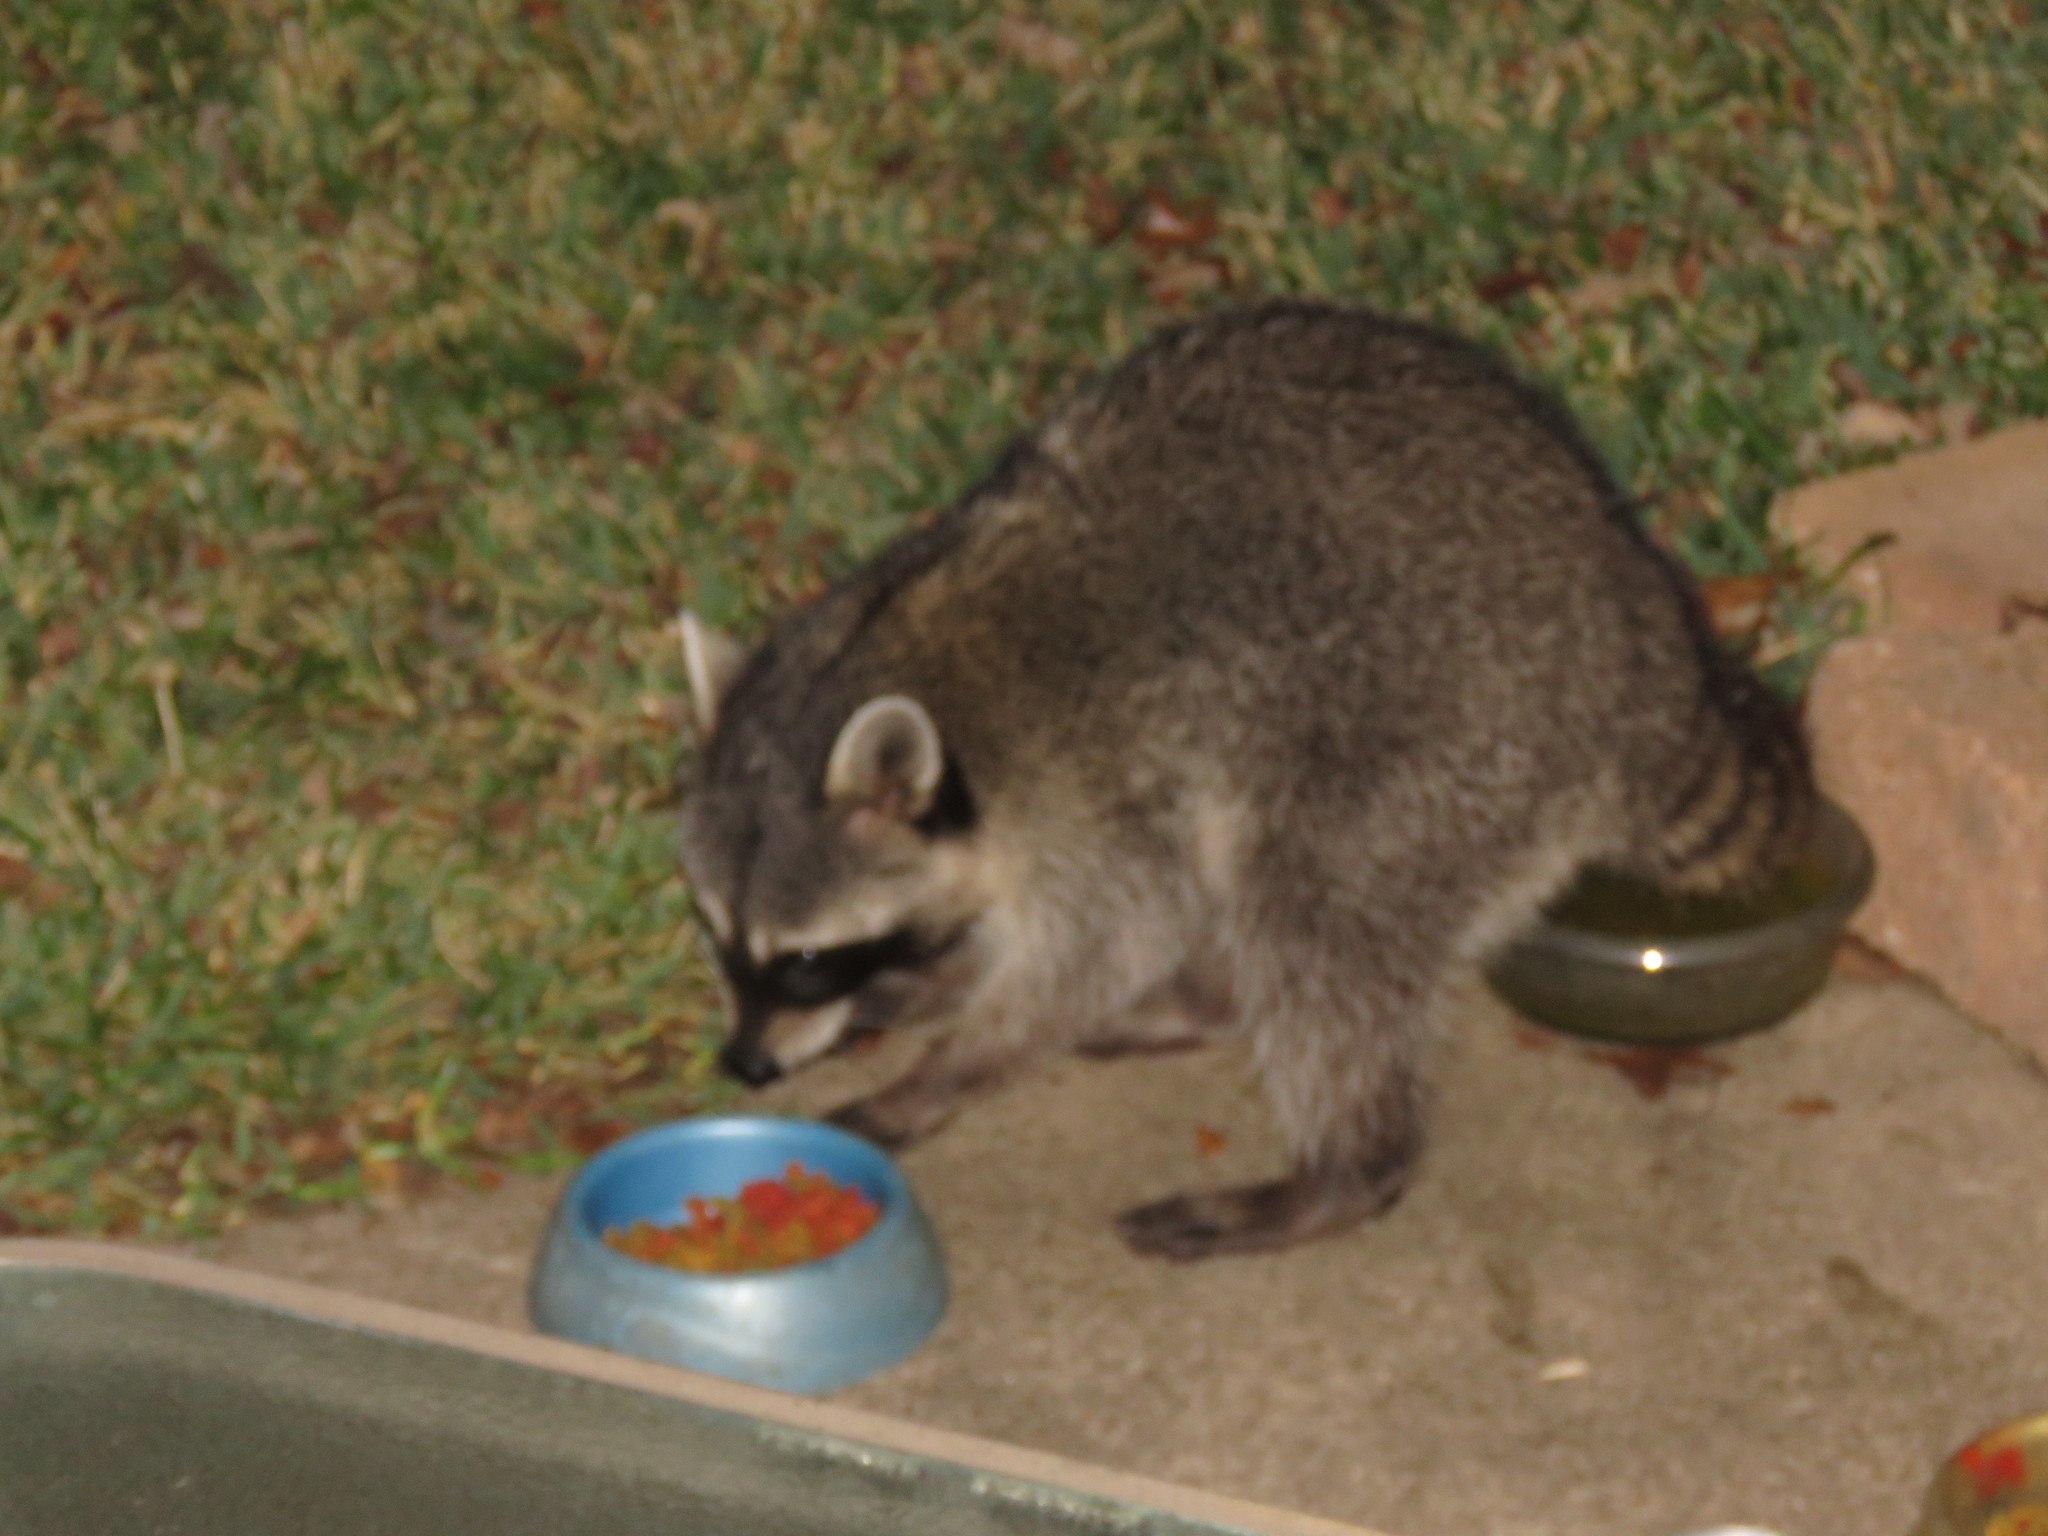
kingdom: Animalia
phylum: Chordata
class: Mammalia
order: Carnivora
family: Procyonidae
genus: Procyon
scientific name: Procyon lotor
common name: Raccoon
